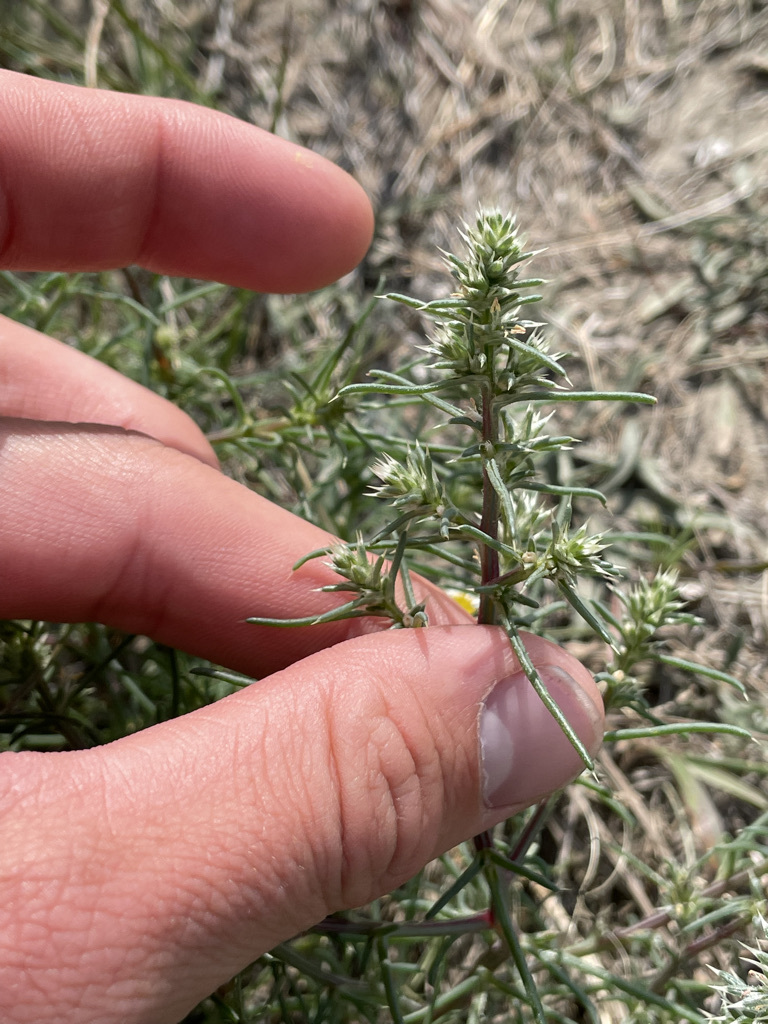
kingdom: Plantae
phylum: Tracheophyta
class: Magnoliopsida
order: Caryophyllales
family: Amaranthaceae
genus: Salsola
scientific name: Salsola tragus
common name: Prickly russian thistle
